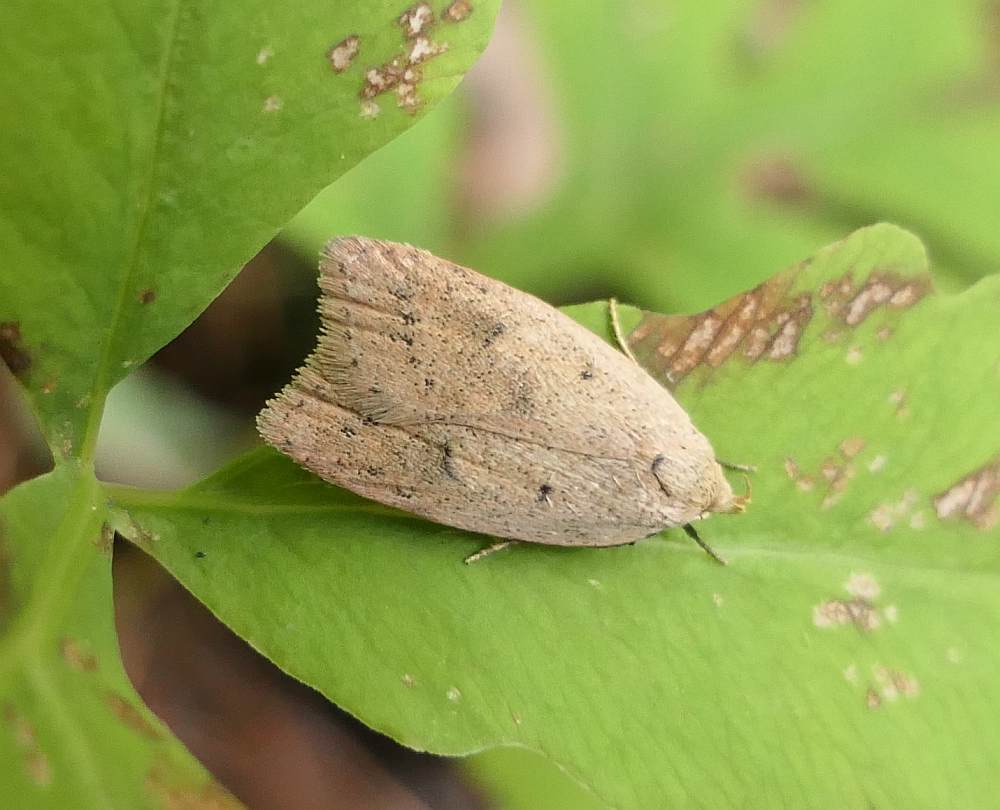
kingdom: Animalia
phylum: Arthropoda
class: Insecta
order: Lepidoptera
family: Peleopodidae
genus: Machimia
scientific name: Machimia tentoriferella
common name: Gold-striped leaftier moth
